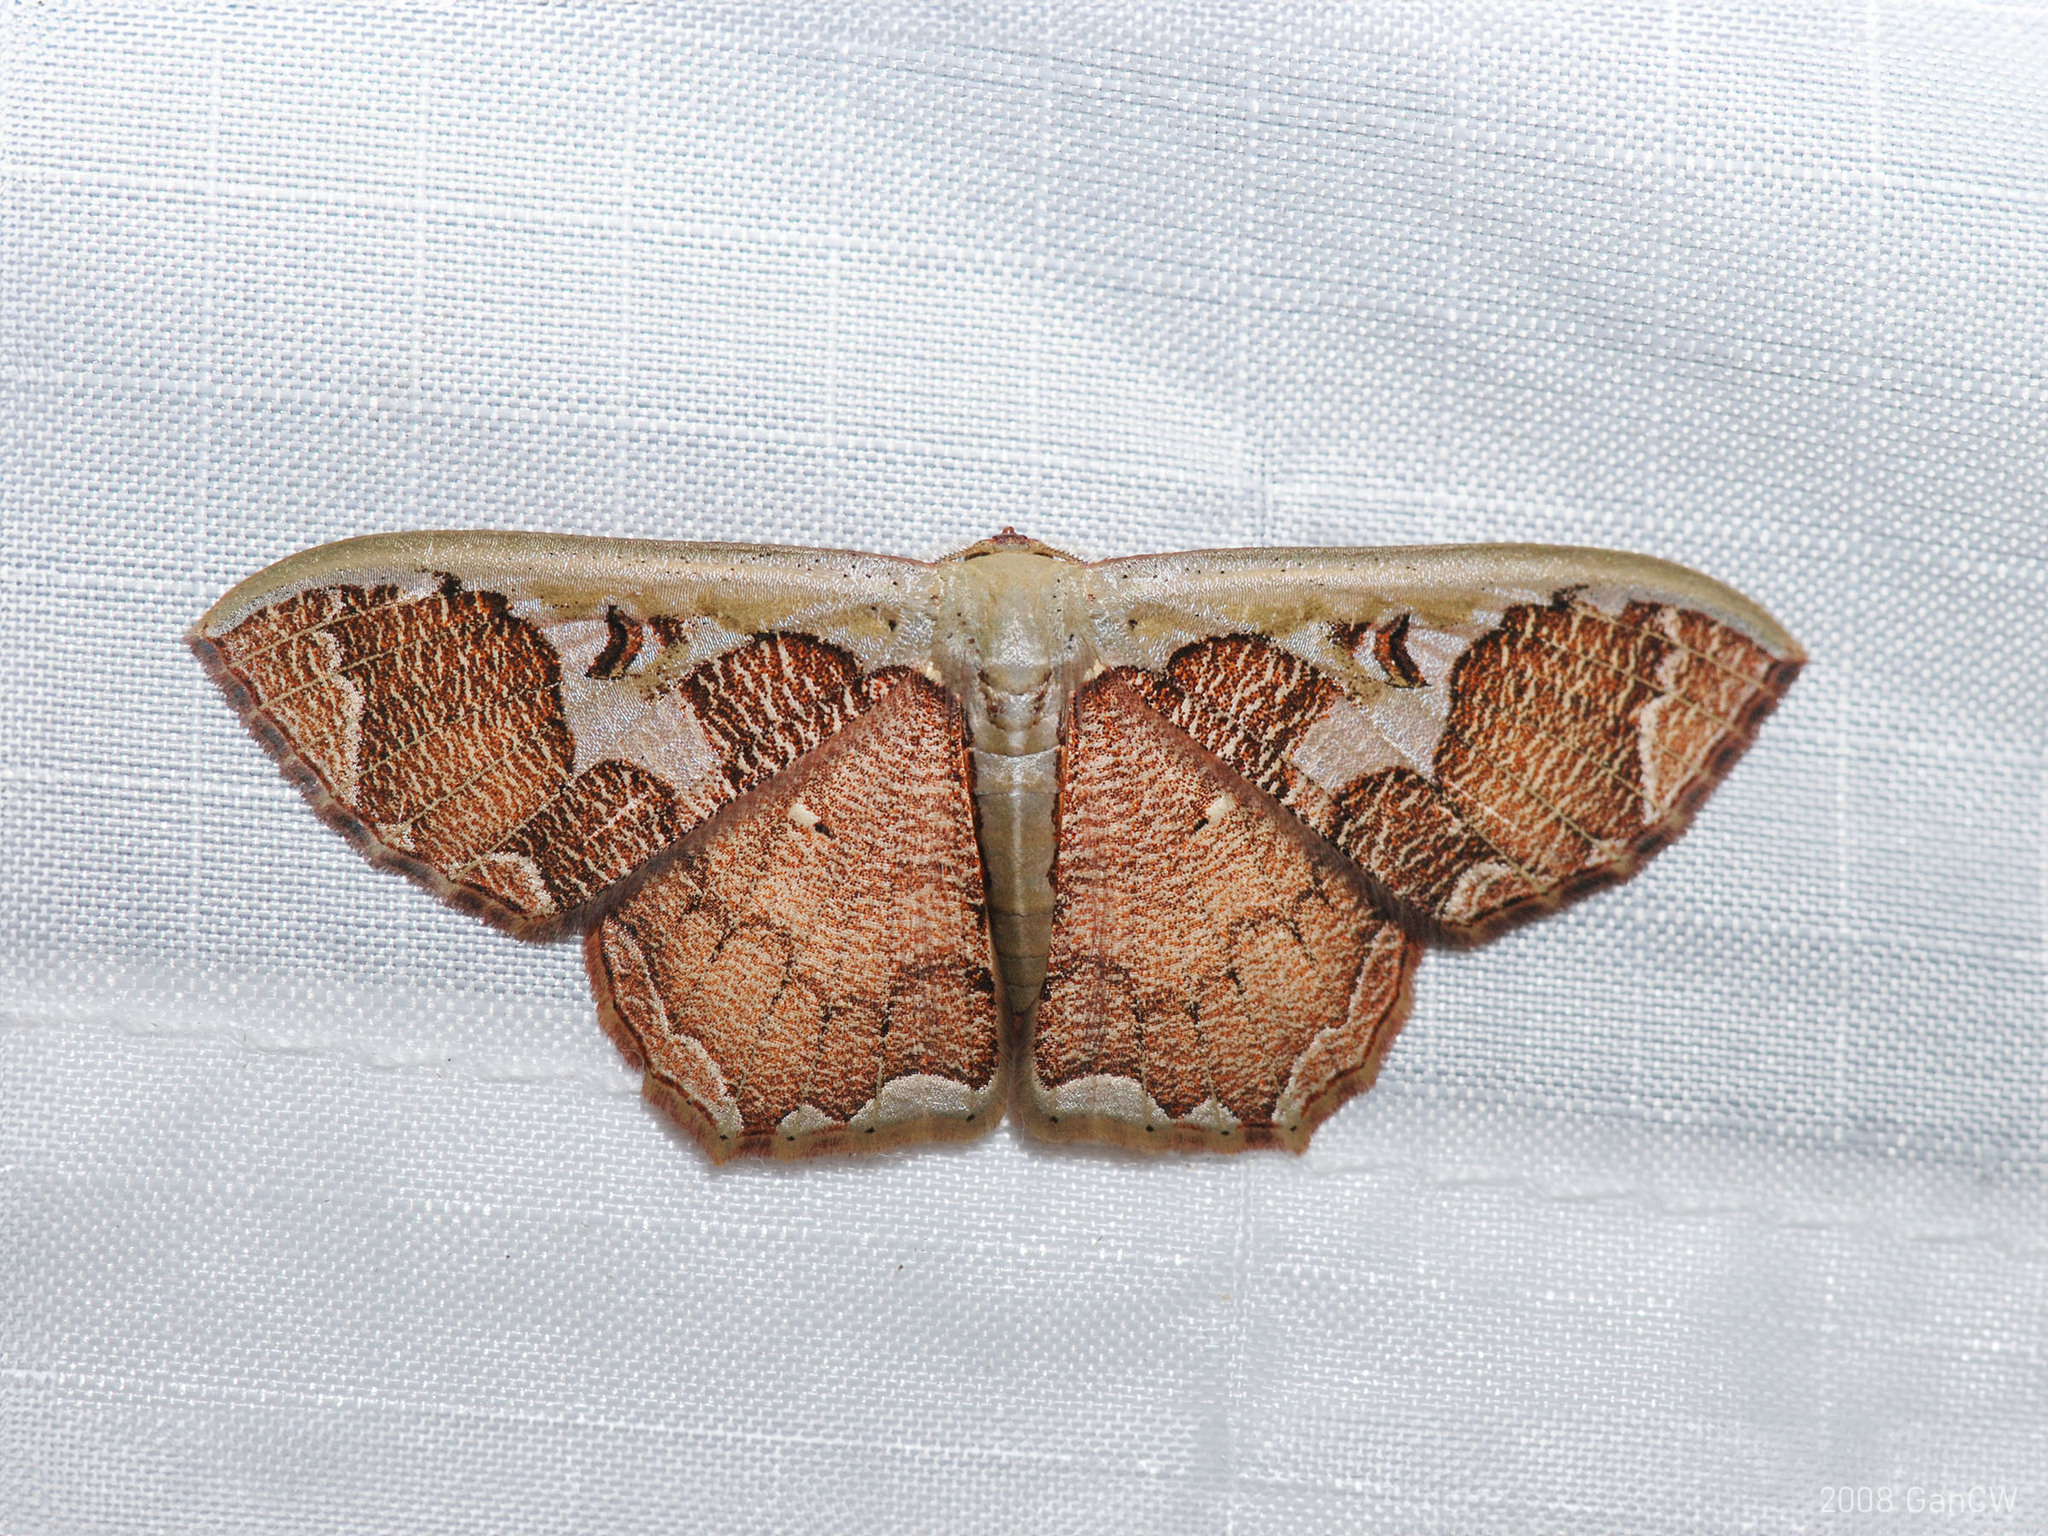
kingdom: Animalia
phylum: Arthropoda
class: Insecta
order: Lepidoptera
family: Geometridae
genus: Zythos
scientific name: Zythos avellanea
